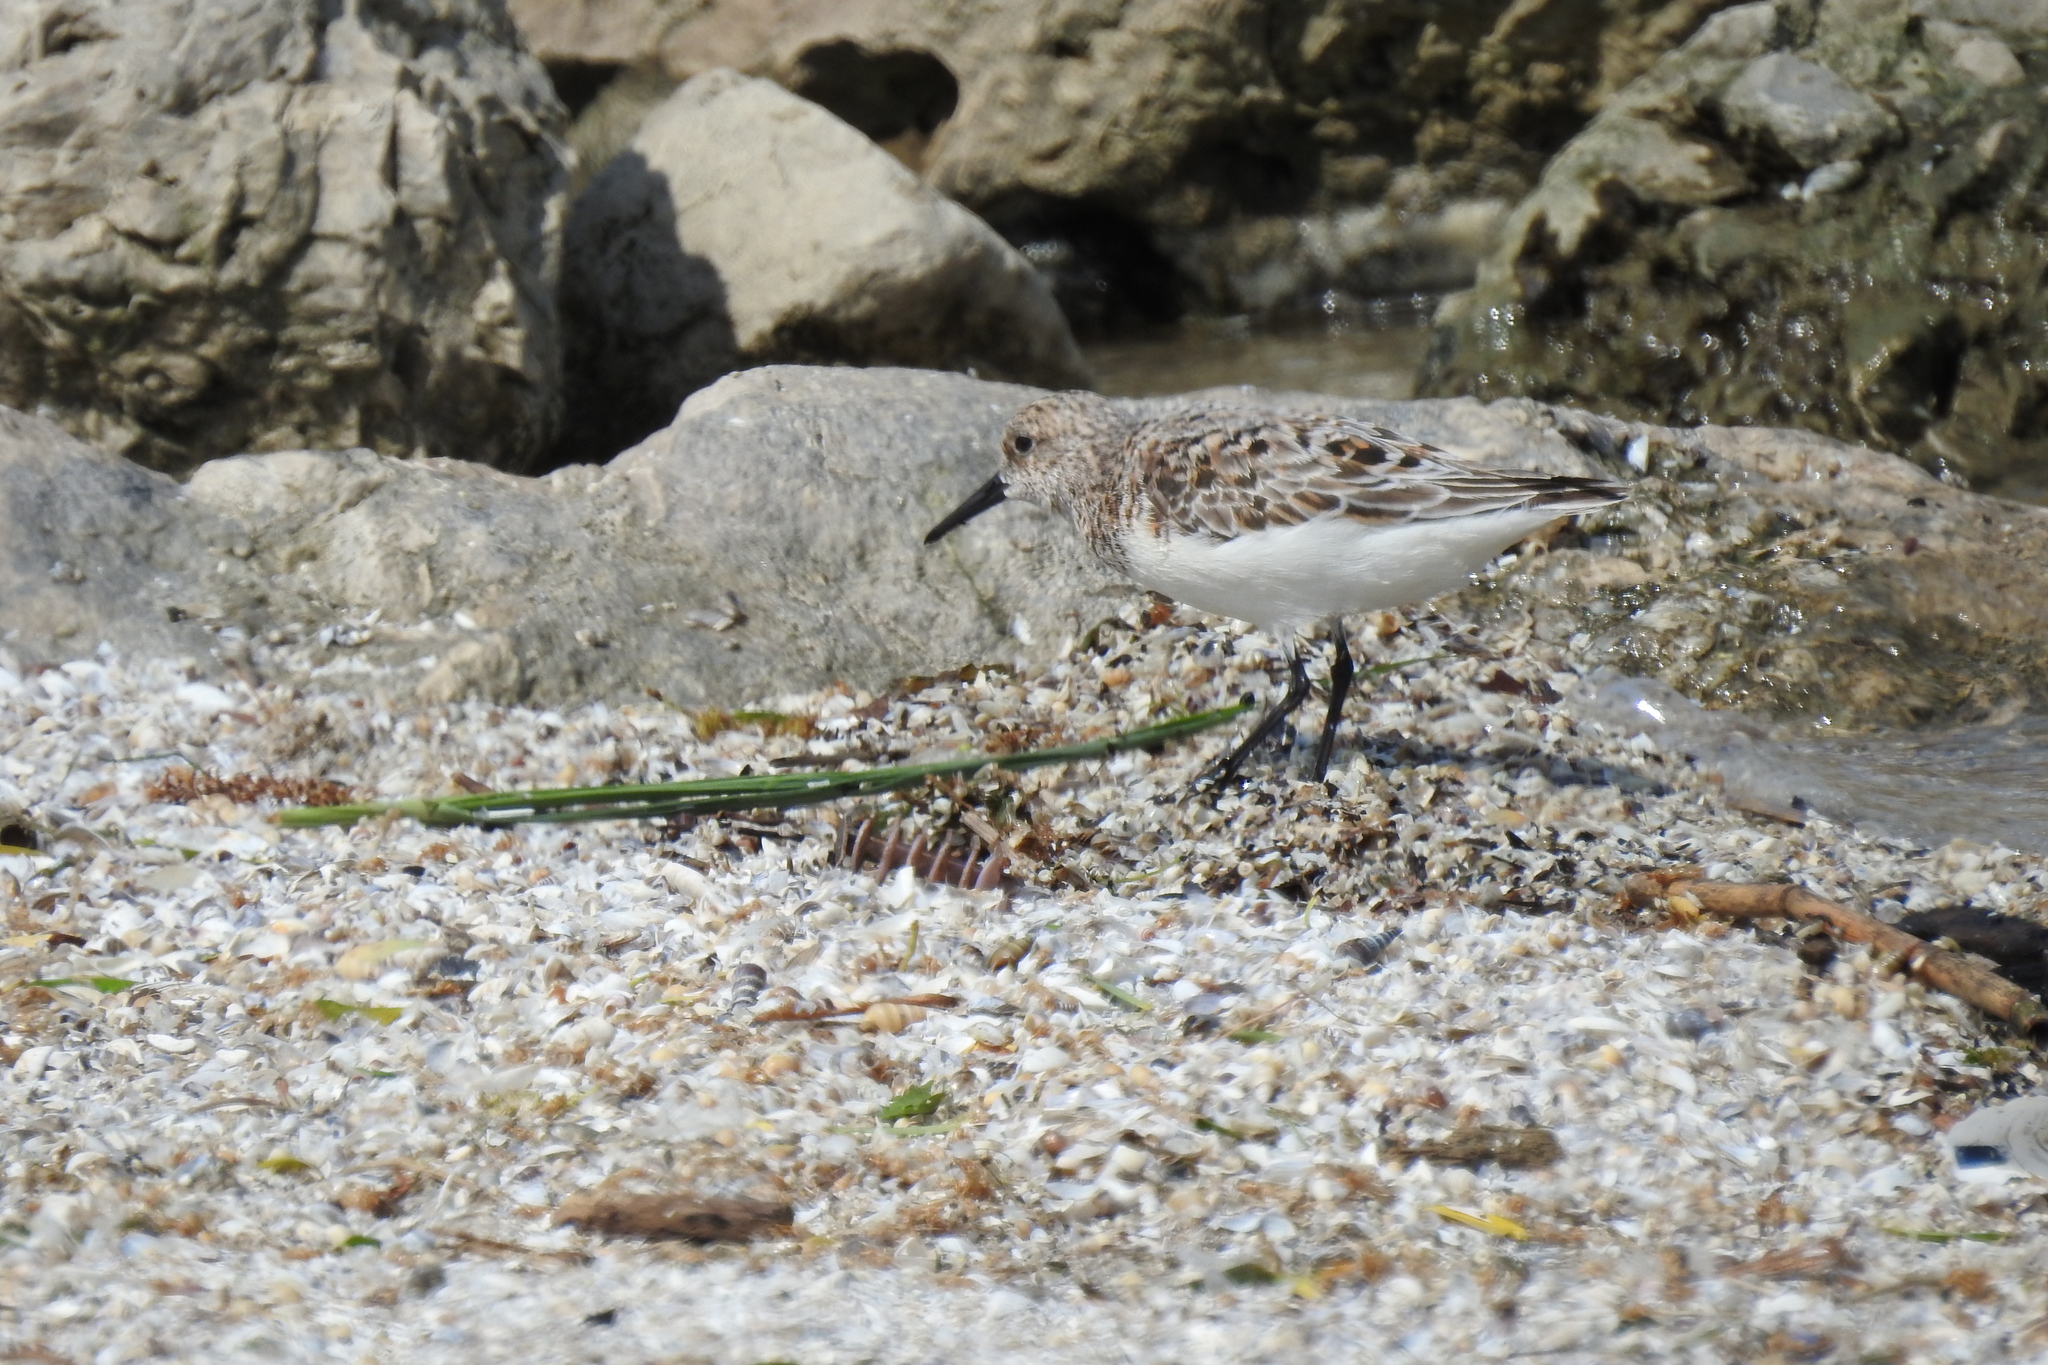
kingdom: Animalia
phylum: Chordata
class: Aves
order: Charadriiformes
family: Scolopacidae
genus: Calidris
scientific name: Calidris alba
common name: Sanderling
